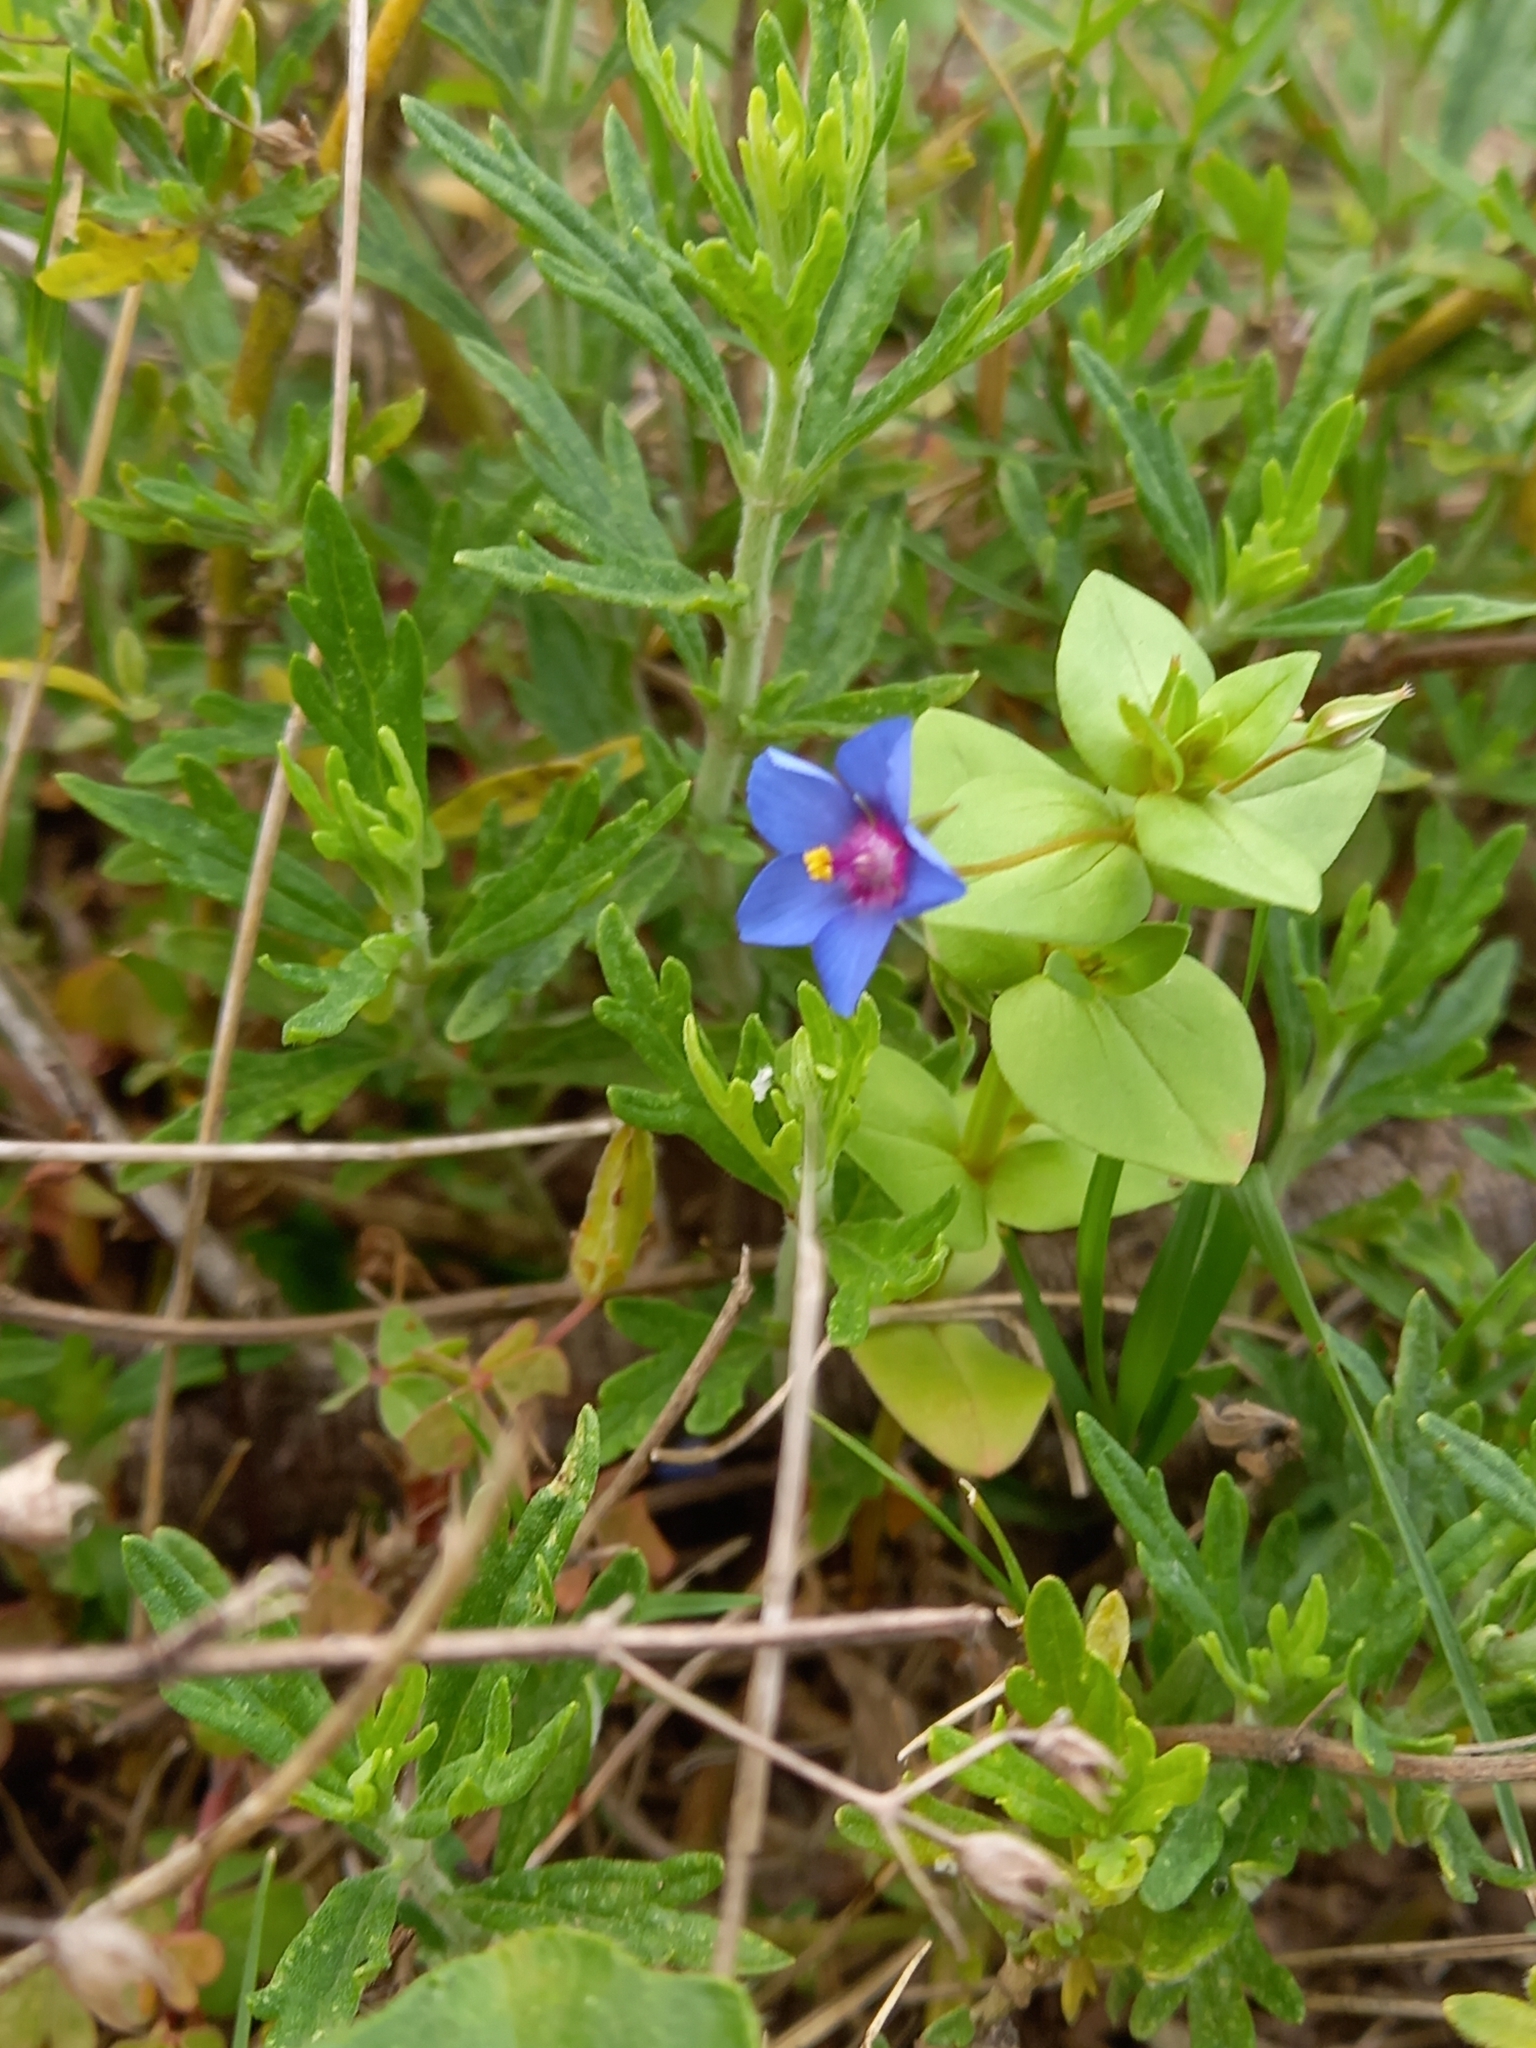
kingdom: Plantae
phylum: Tracheophyta
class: Magnoliopsida
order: Ericales
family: Primulaceae
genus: Lysimachia
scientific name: Lysimachia loeflingii
